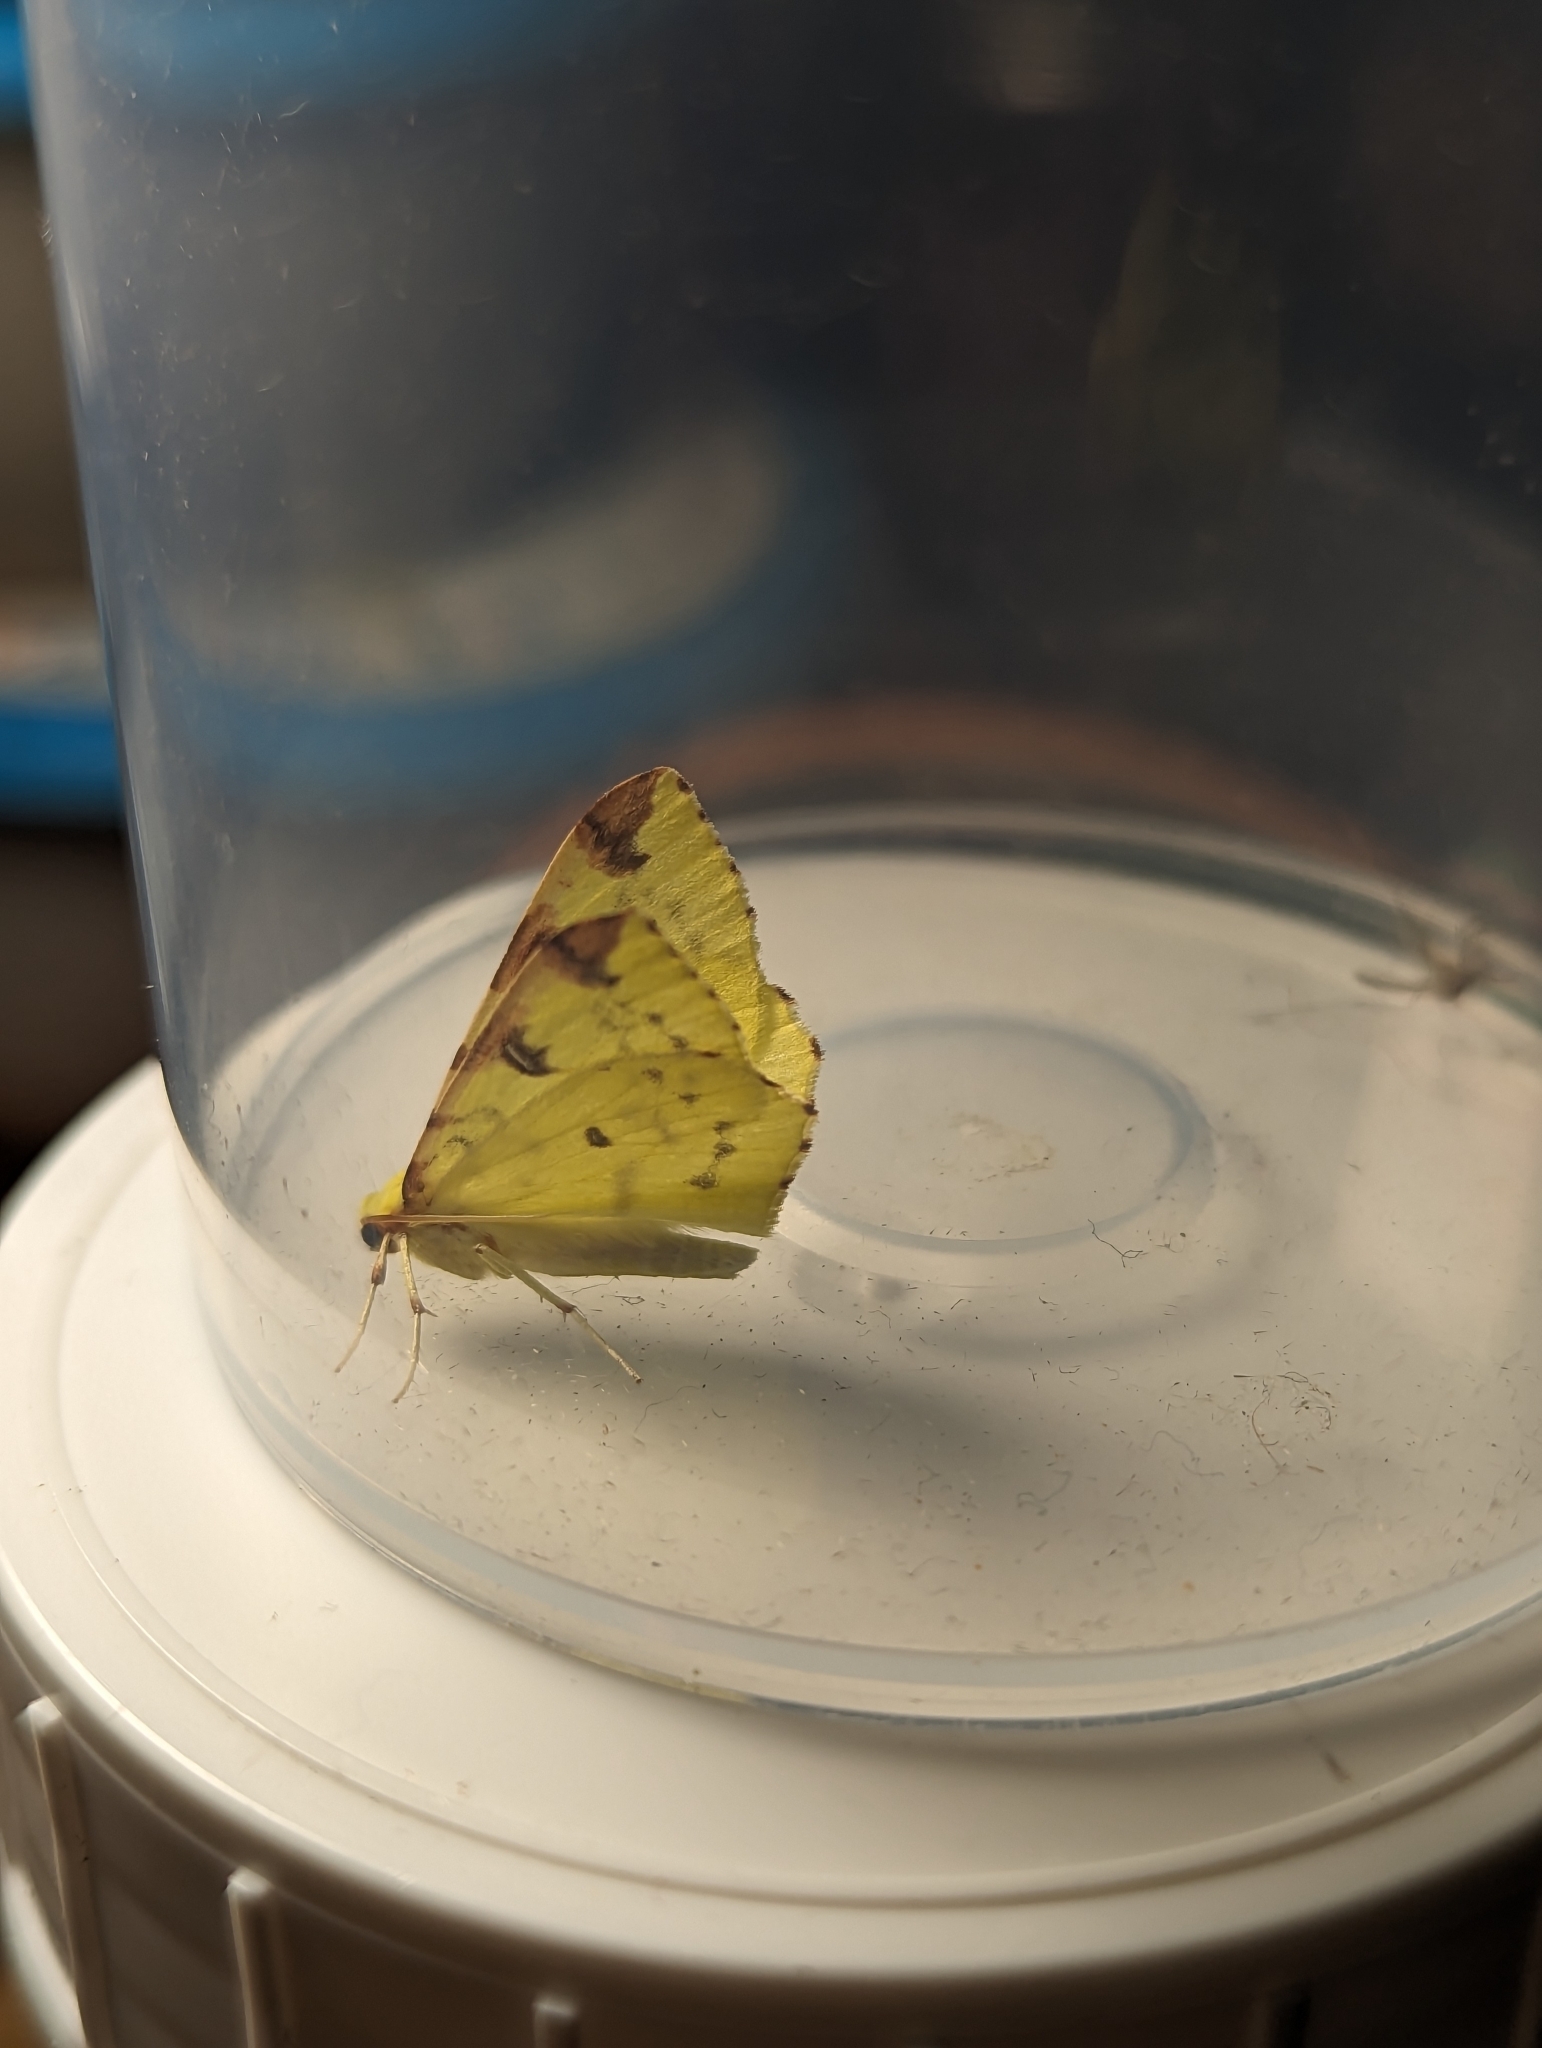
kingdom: Animalia
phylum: Arthropoda
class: Insecta
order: Lepidoptera
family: Geometridae
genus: Opisthograptis
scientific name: Opisthograptis luteolata
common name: Brimstone moth
